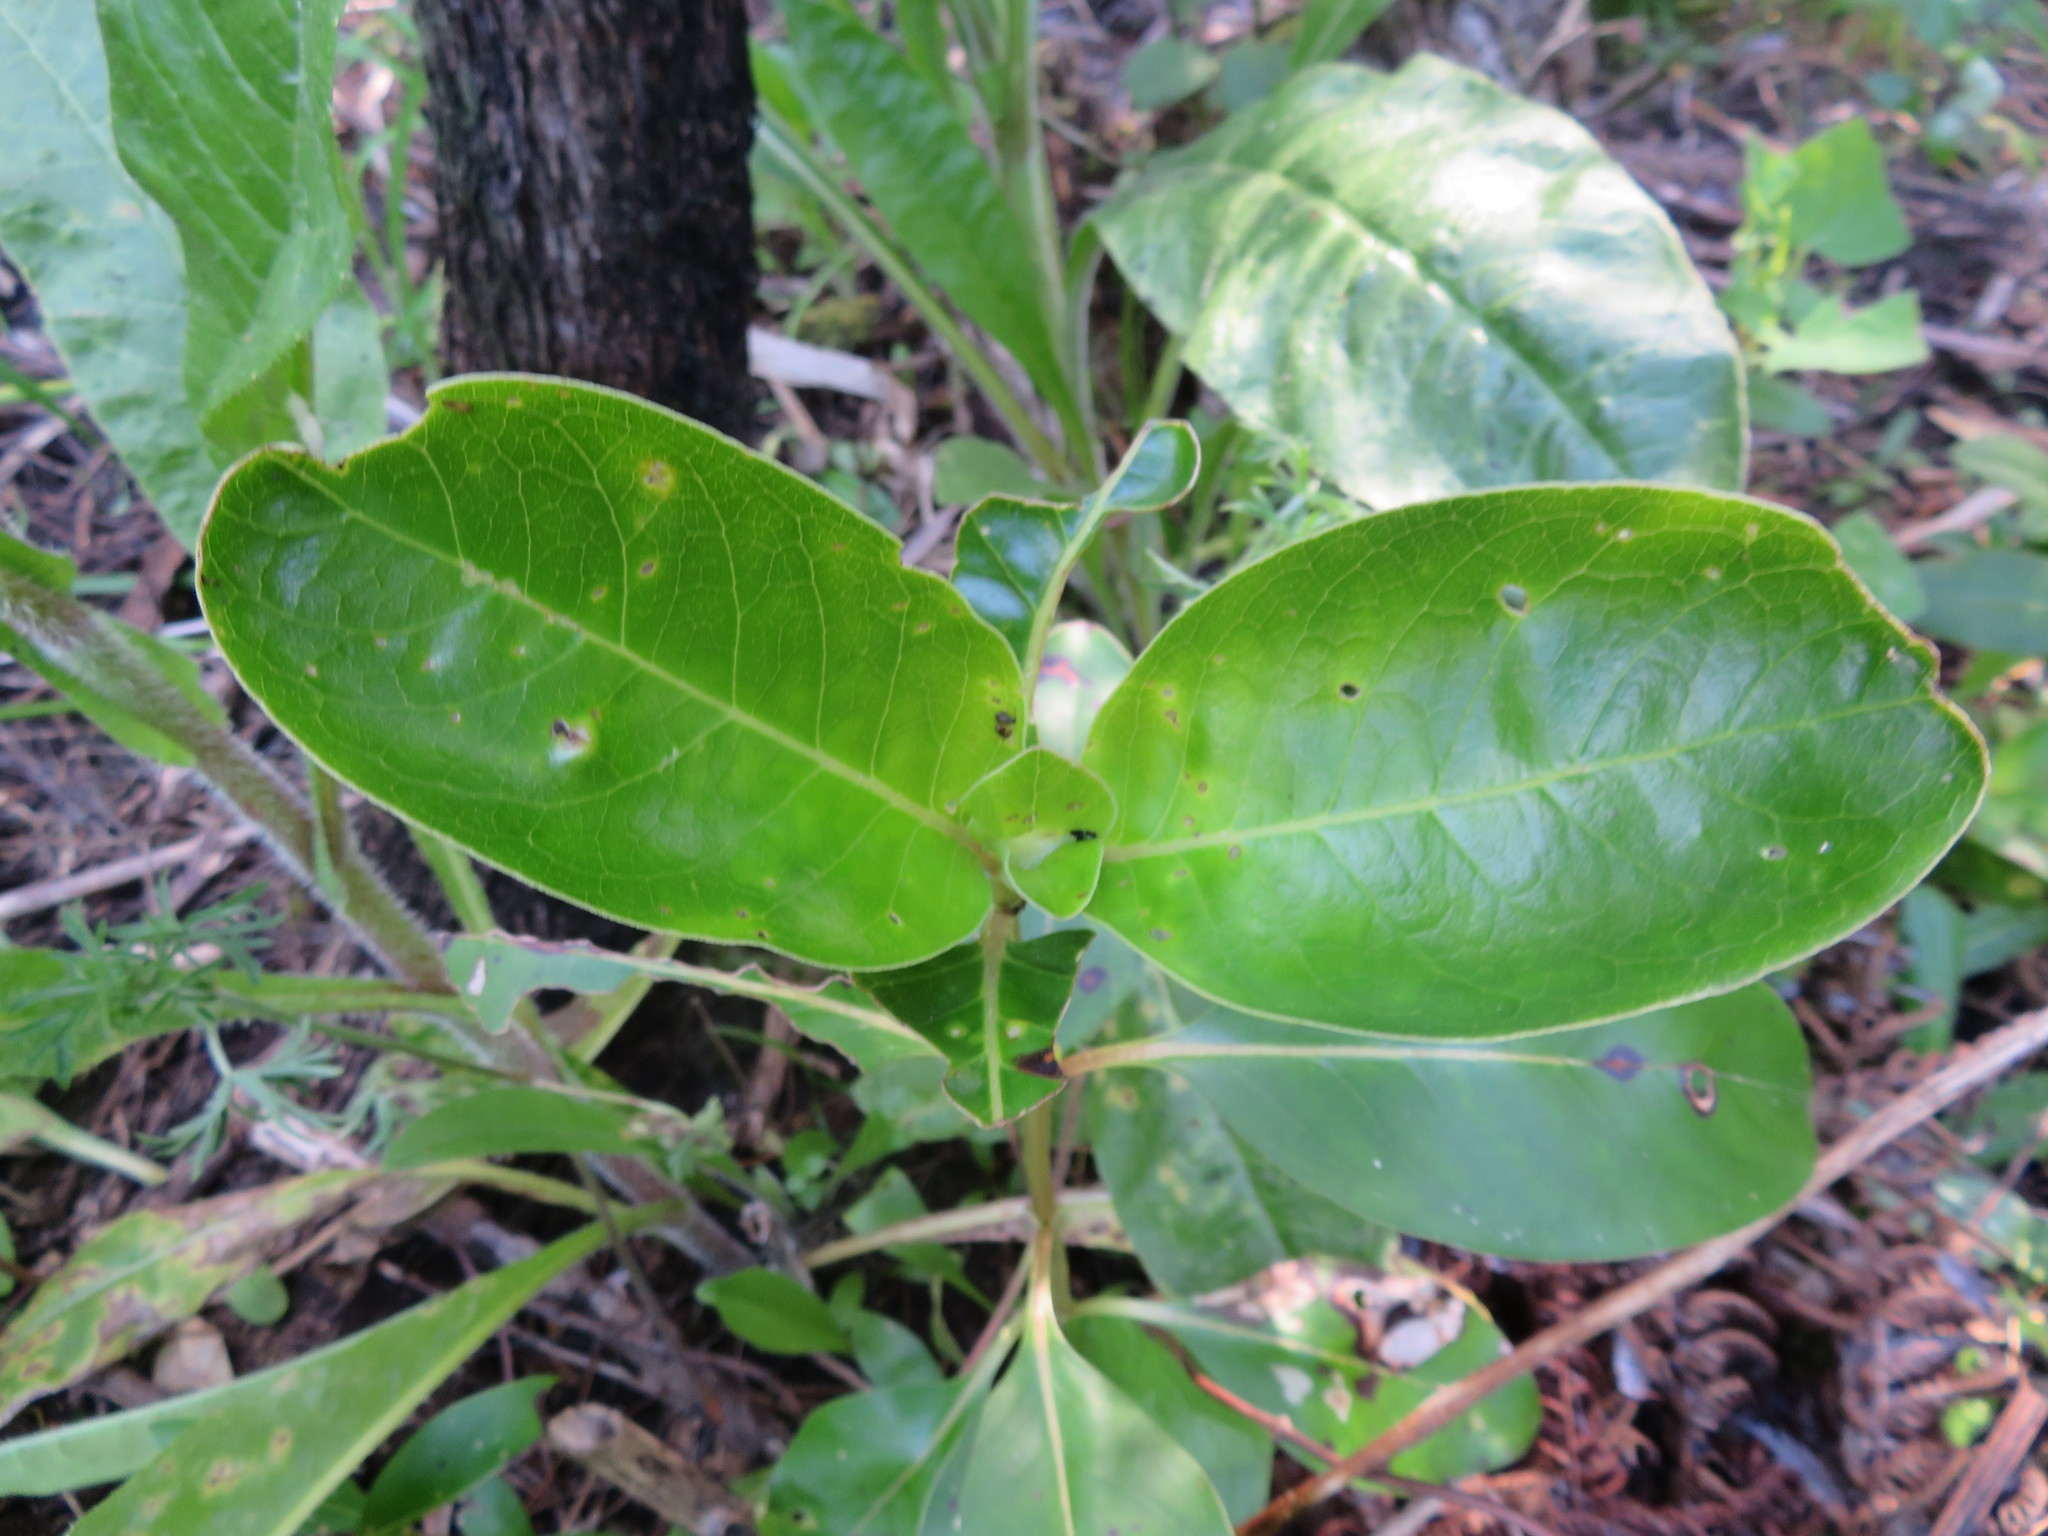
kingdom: Plantae
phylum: Tracheophyta
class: Magnoliopsida
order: Gentianales
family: Rubiaceae
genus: Coprosma
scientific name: Coprosma robusta
